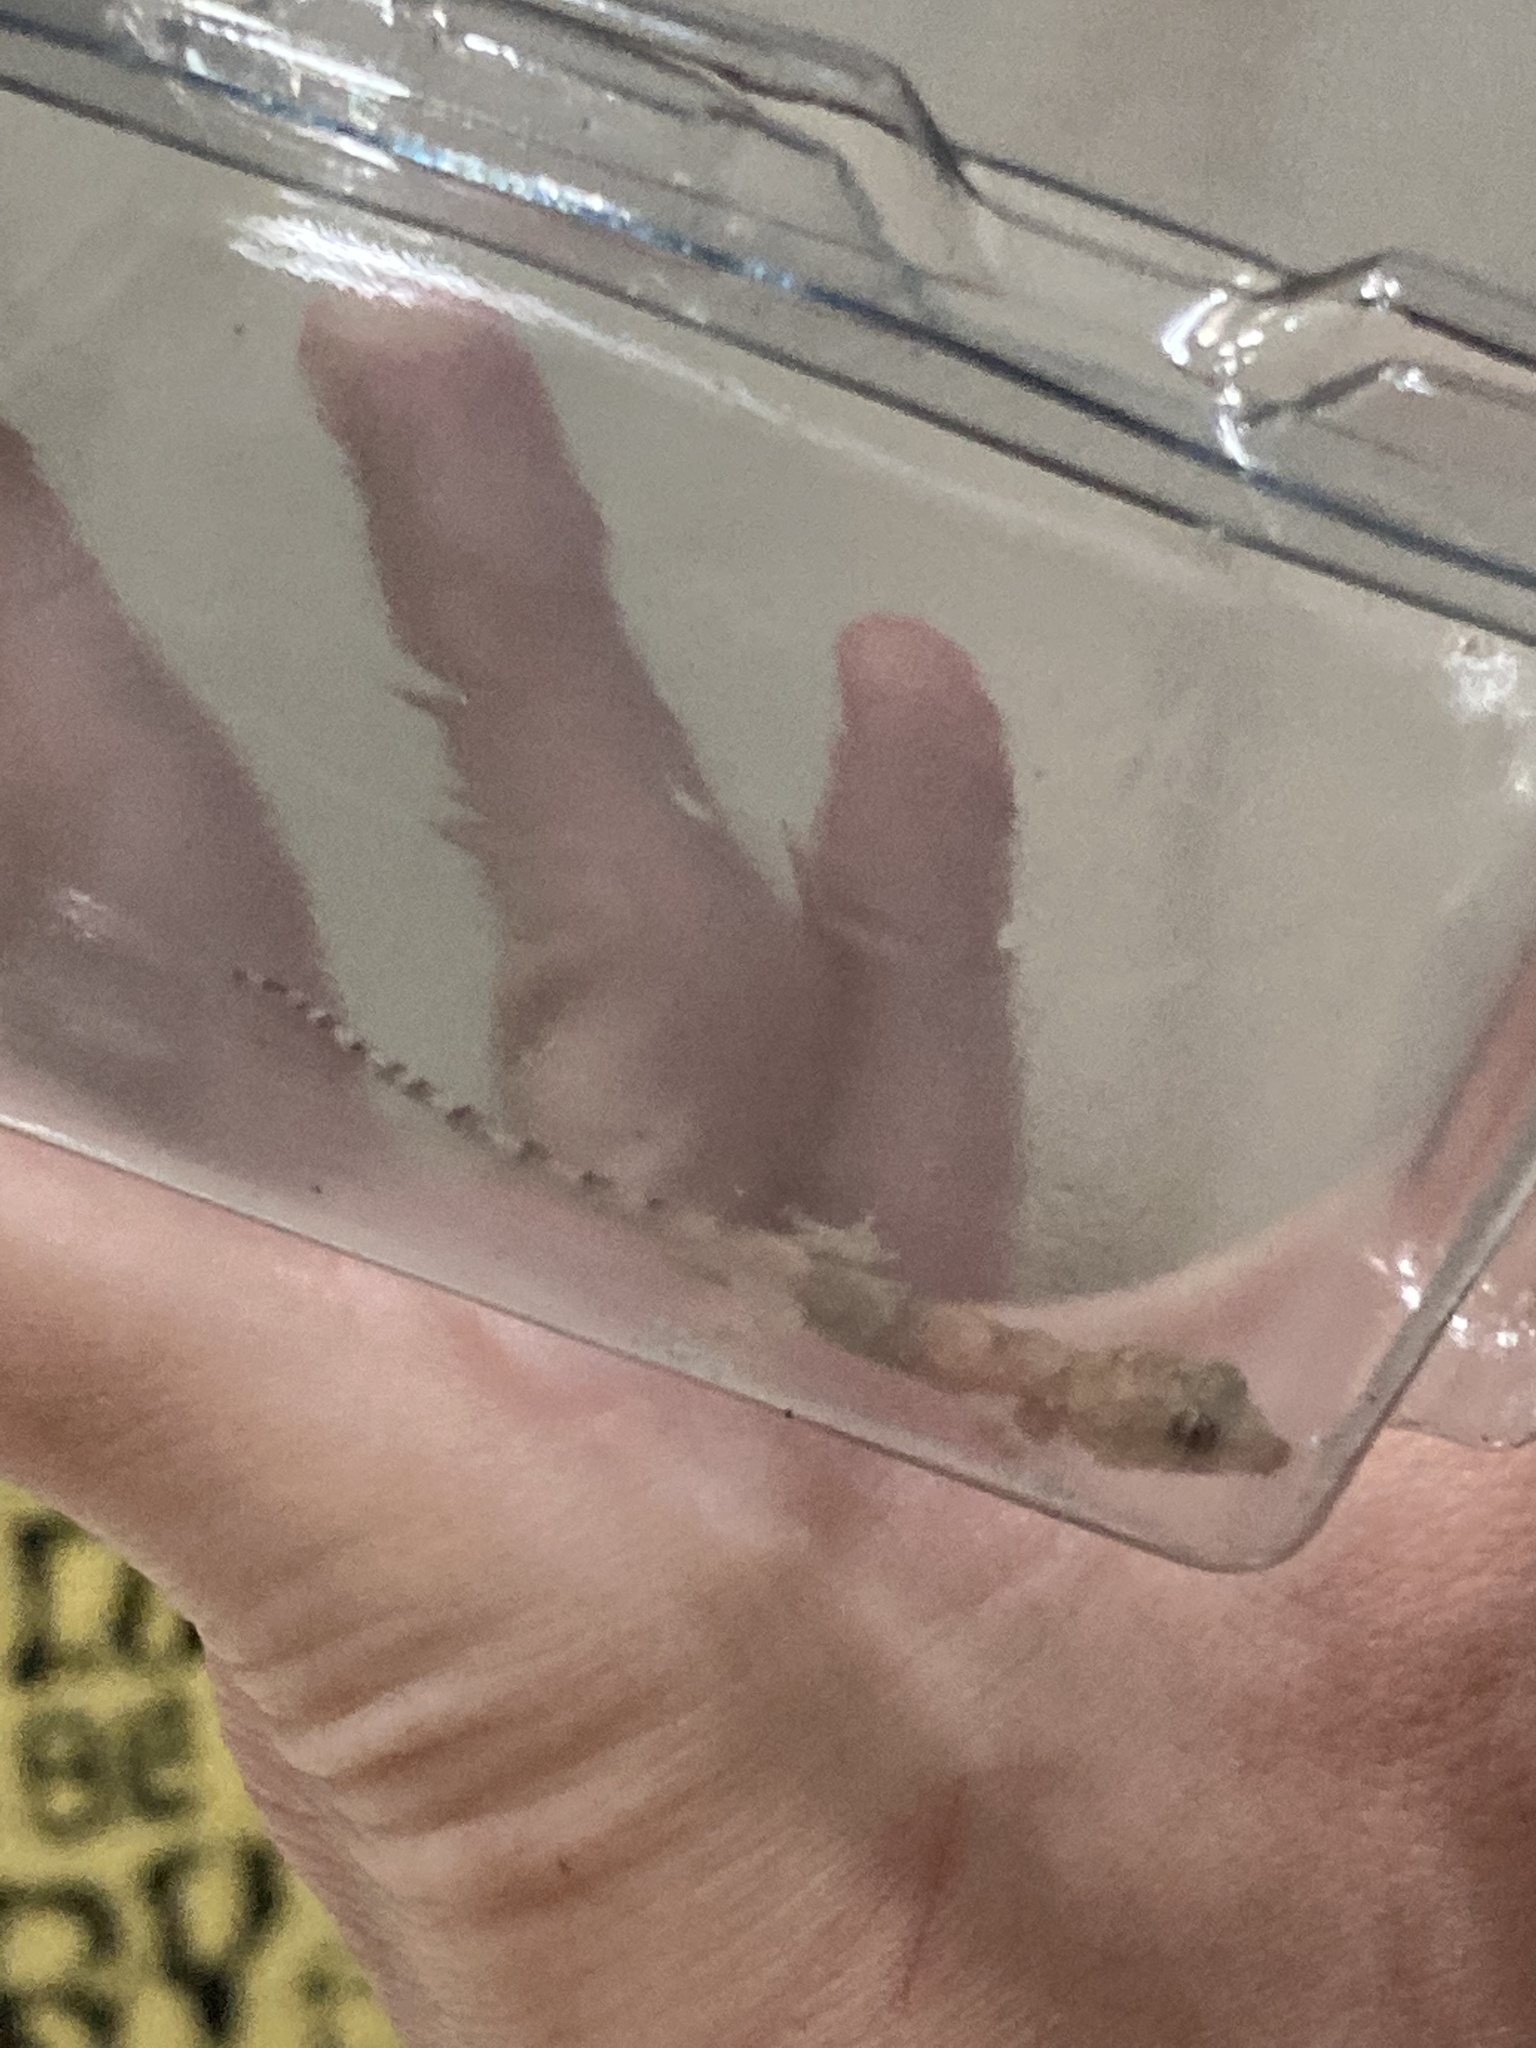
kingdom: Animalia
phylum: Chordata
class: Squamata
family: Gekkonidae
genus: Hemidactylus
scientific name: Hemidactylus mabouia
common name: House gecko
